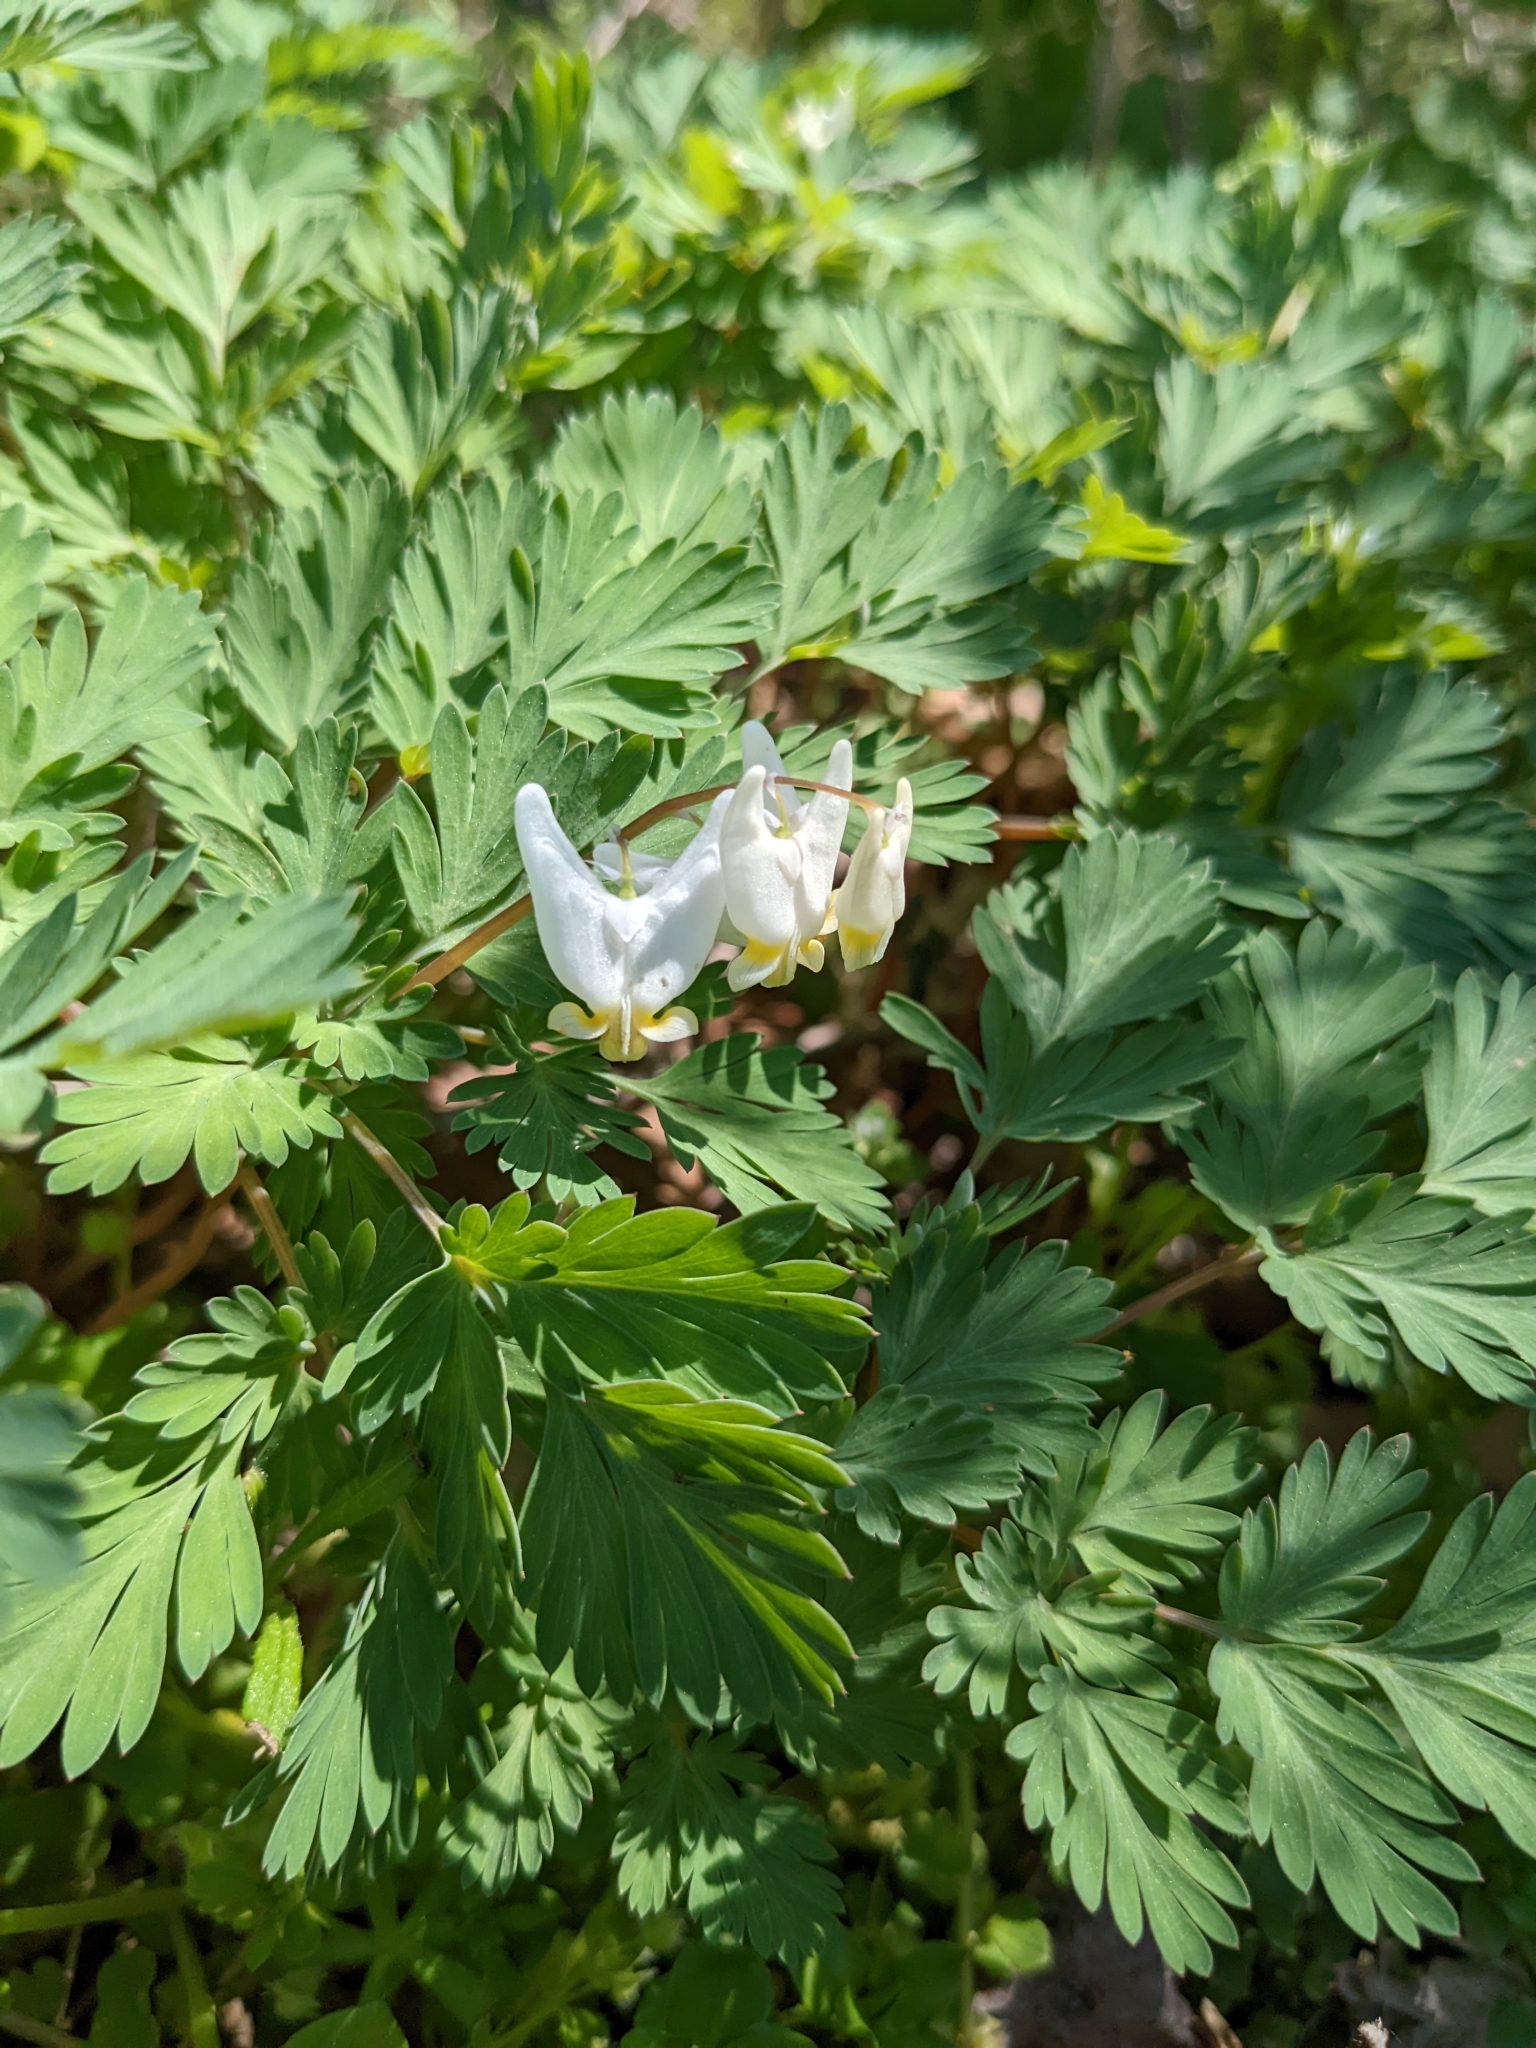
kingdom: Plantae
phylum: Tracheophyta
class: Magnoliopsida
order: Ranunculales
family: Papaveraceae
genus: Dicentra
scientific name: Dicentra cucullaria
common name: Dutchman's breeches
